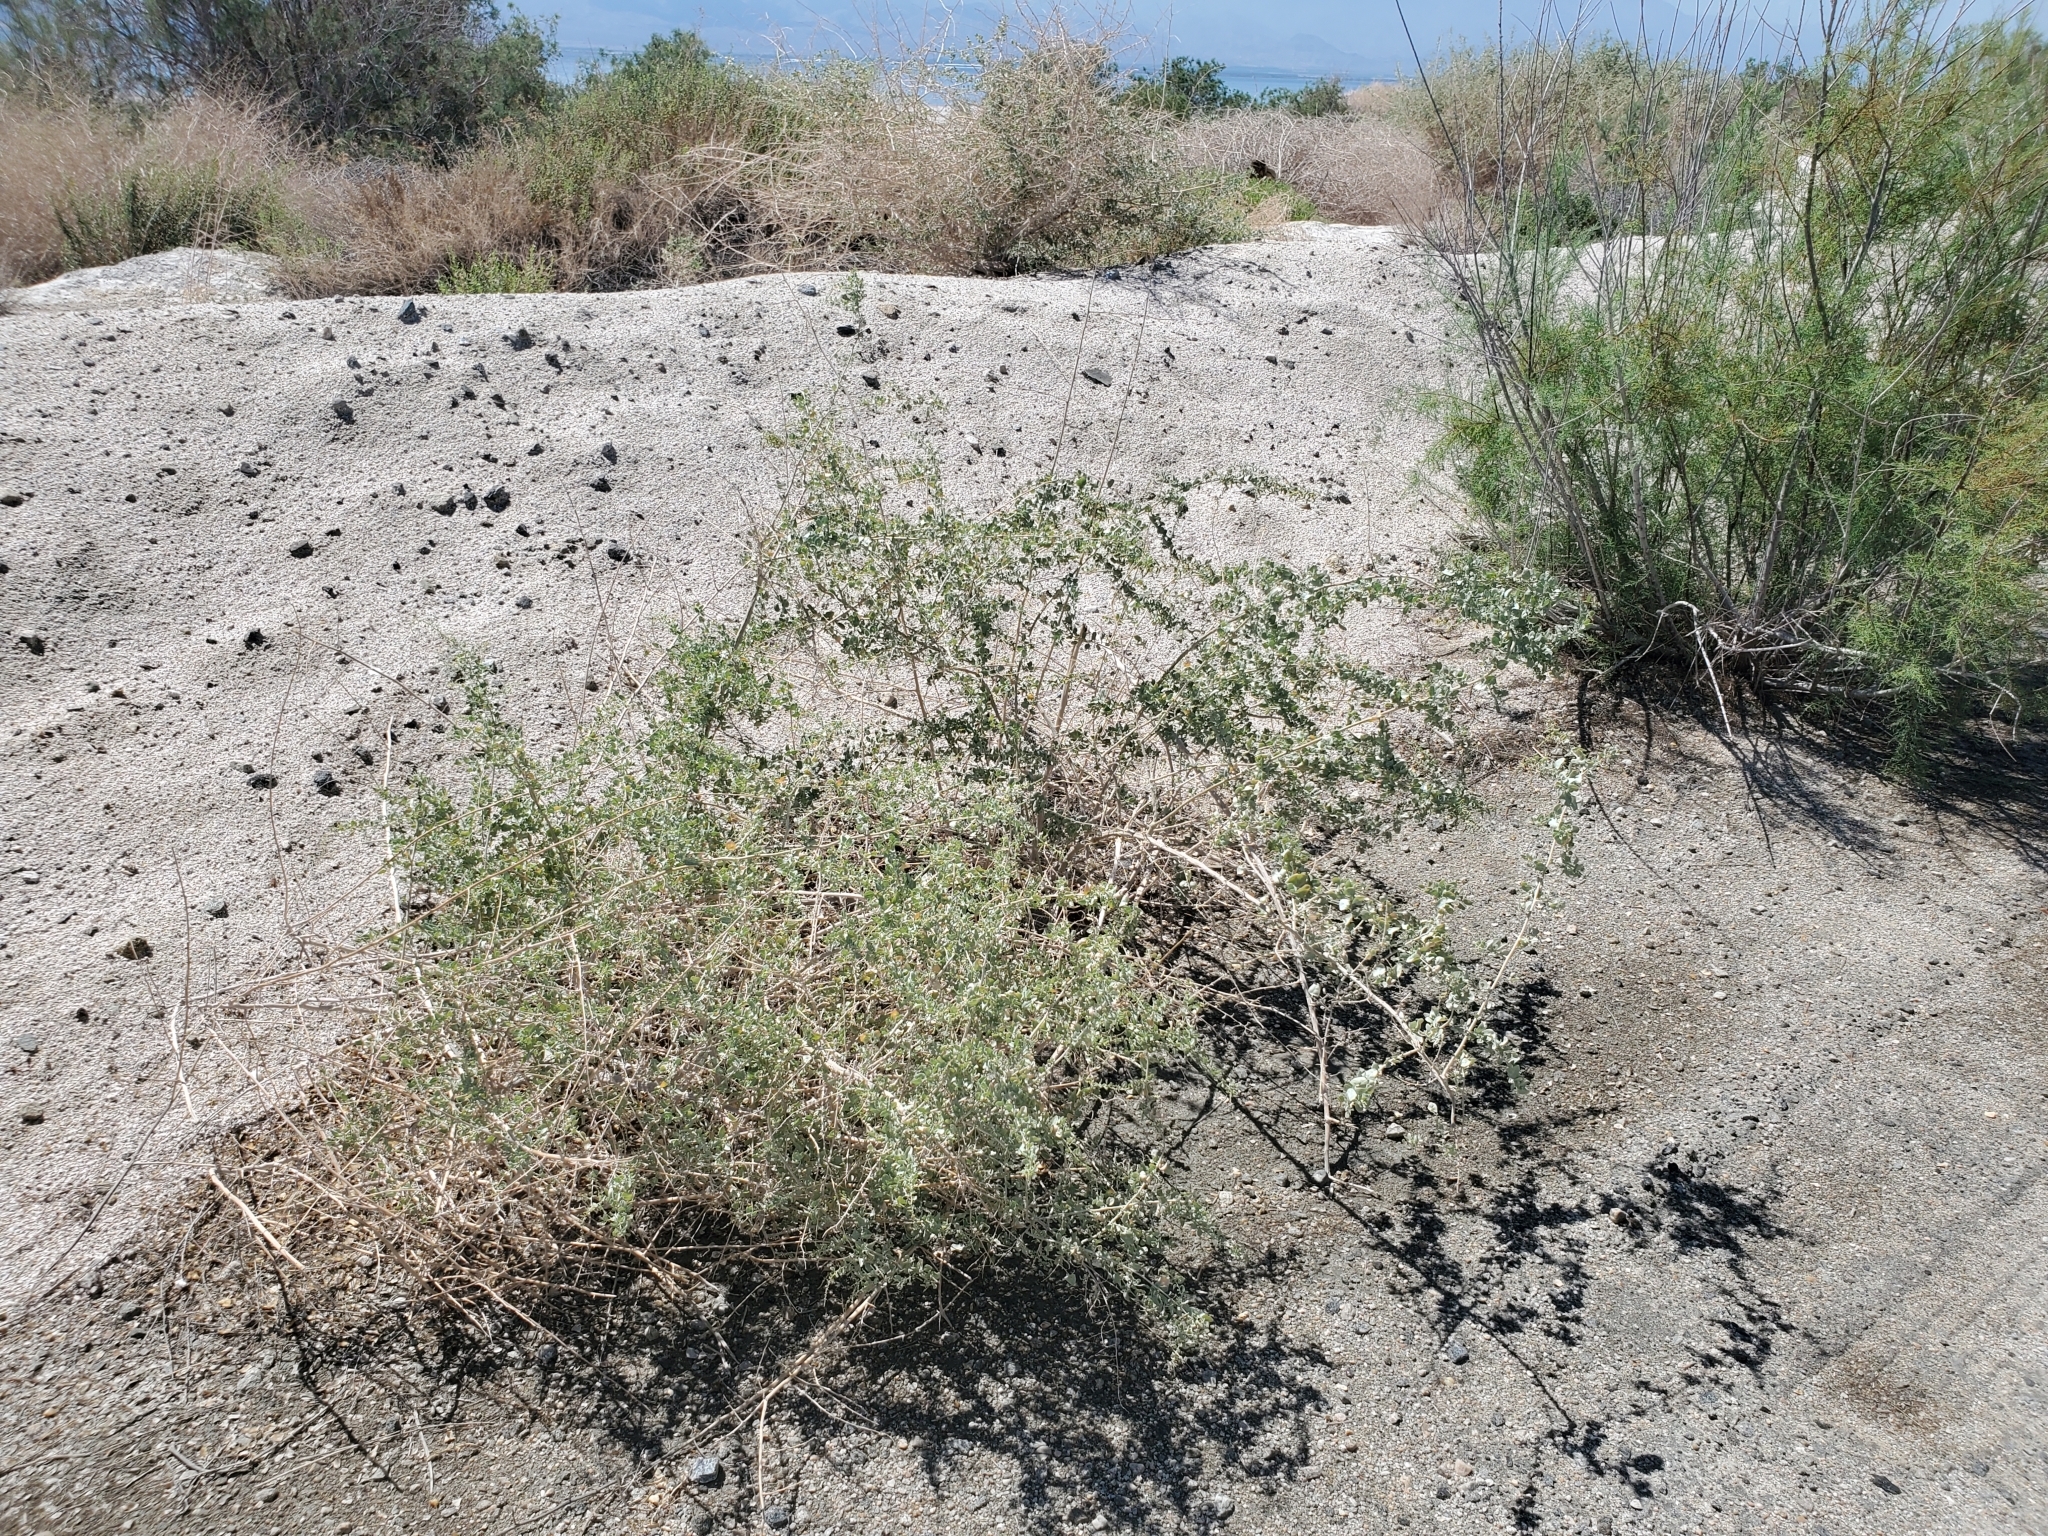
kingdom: Plantae
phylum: Tracheophyta
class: Magnoliopsida
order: Caryophyllales
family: Amaranthaceae
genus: Atriplex
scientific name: Atriplex lentiformis
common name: Big saltbush
